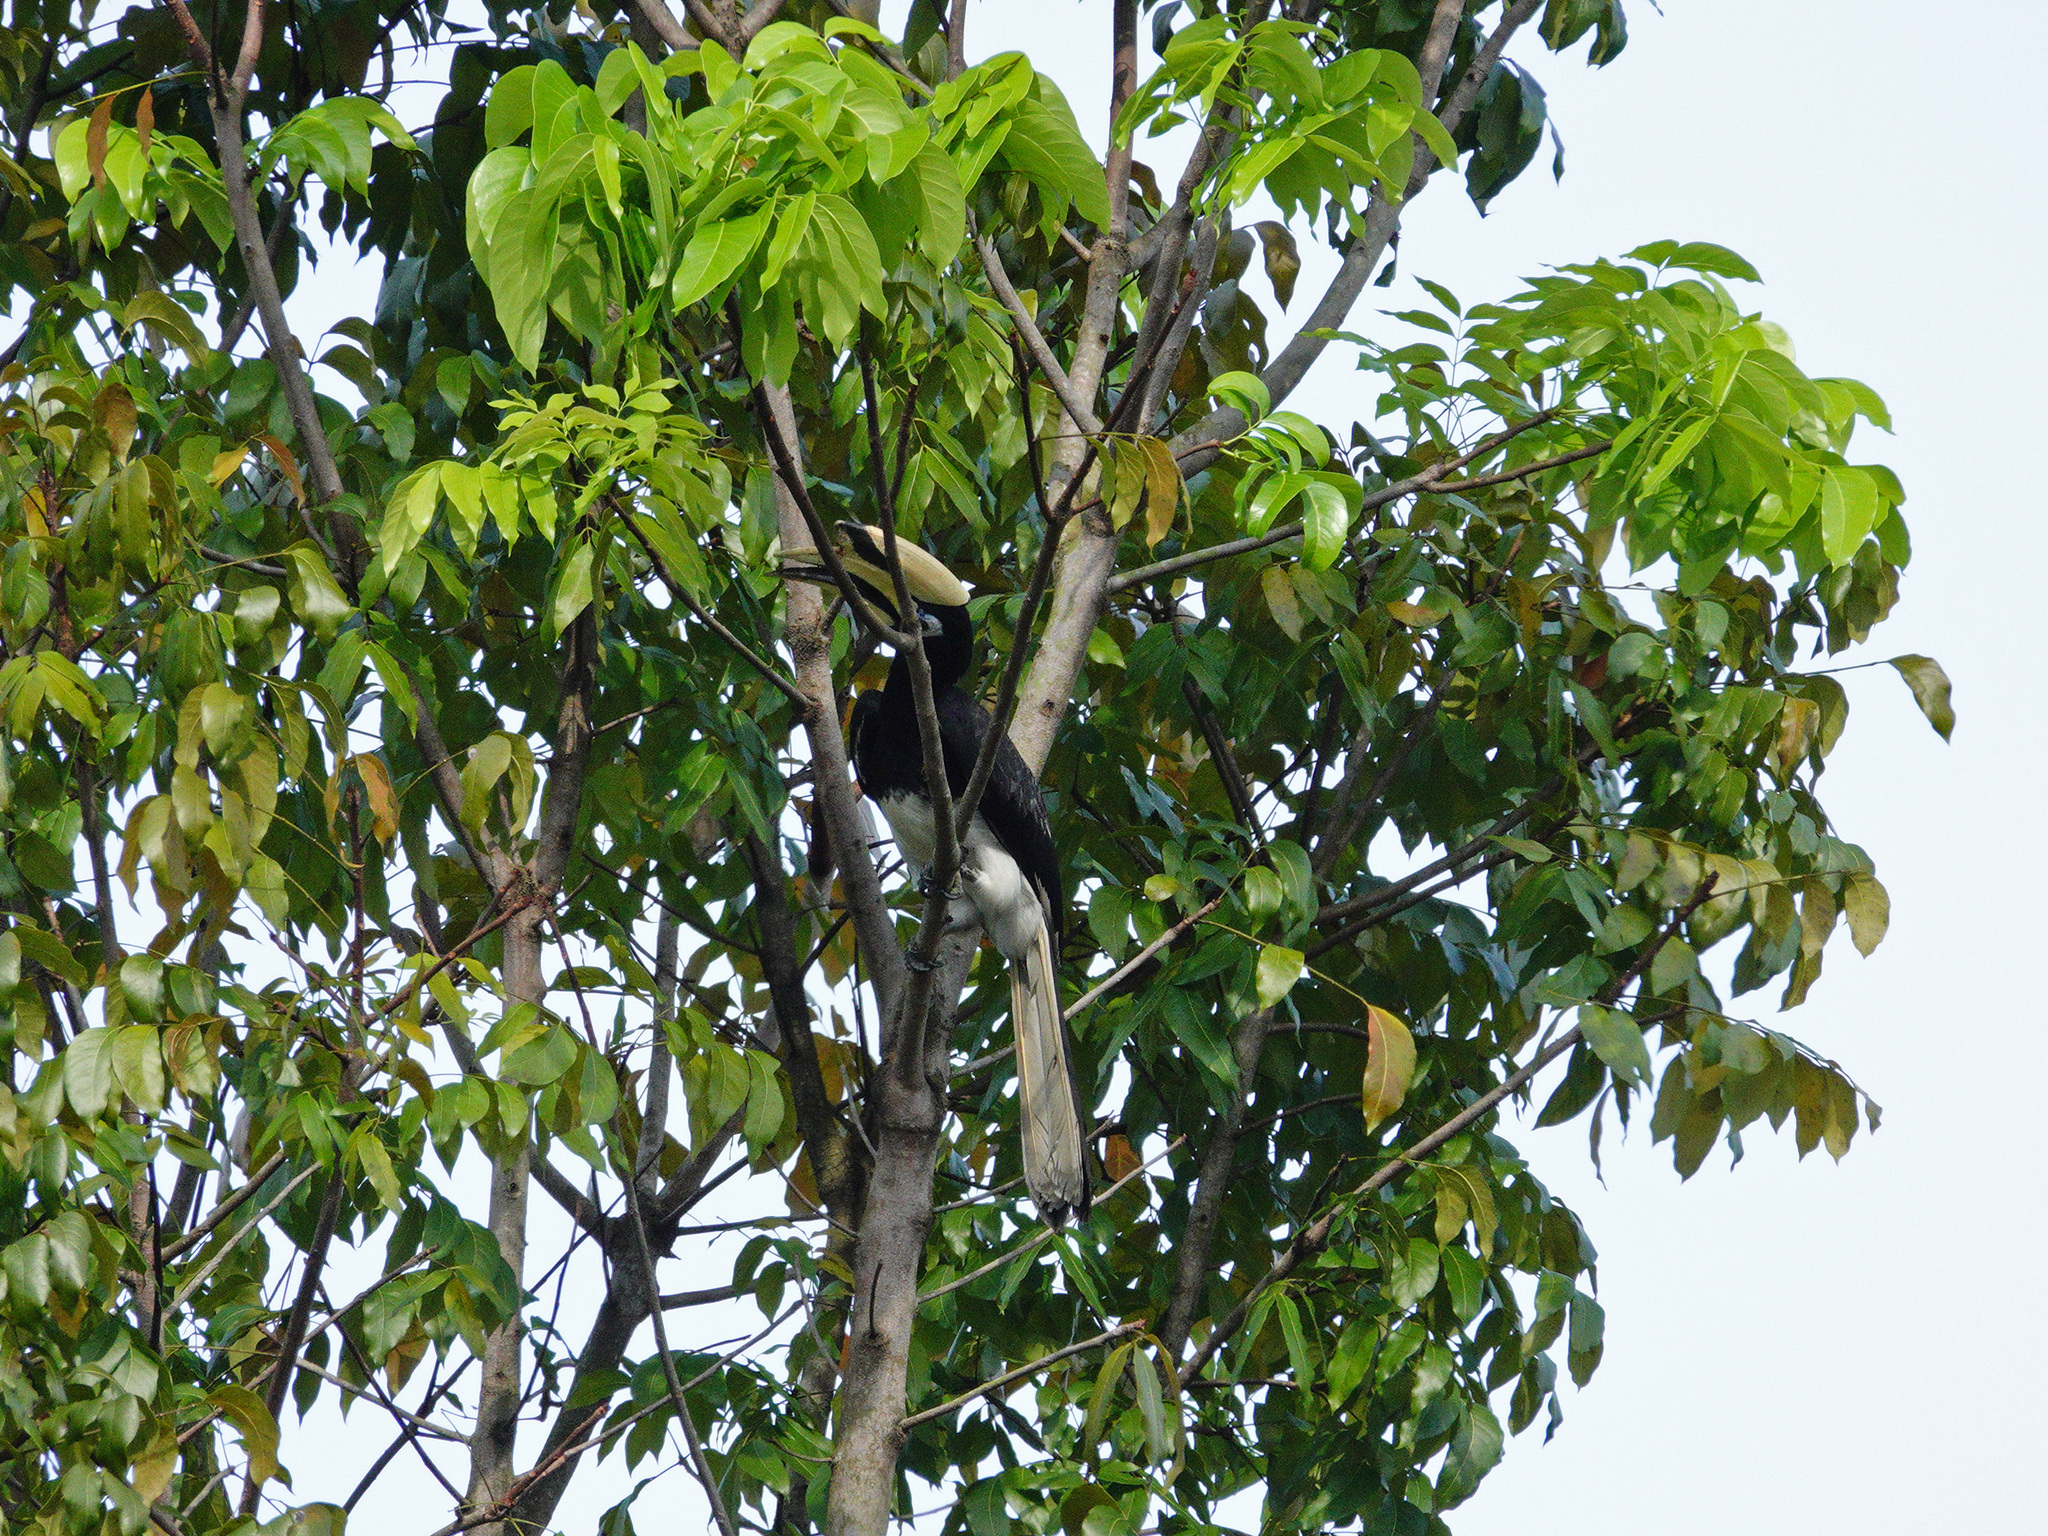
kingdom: Animalia
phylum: Chordata
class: Aves
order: Bucerotiformes
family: Bucerotidae
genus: Anthracoceros
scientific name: Anthracoceros albirostris
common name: Oriental pied-hornbill
